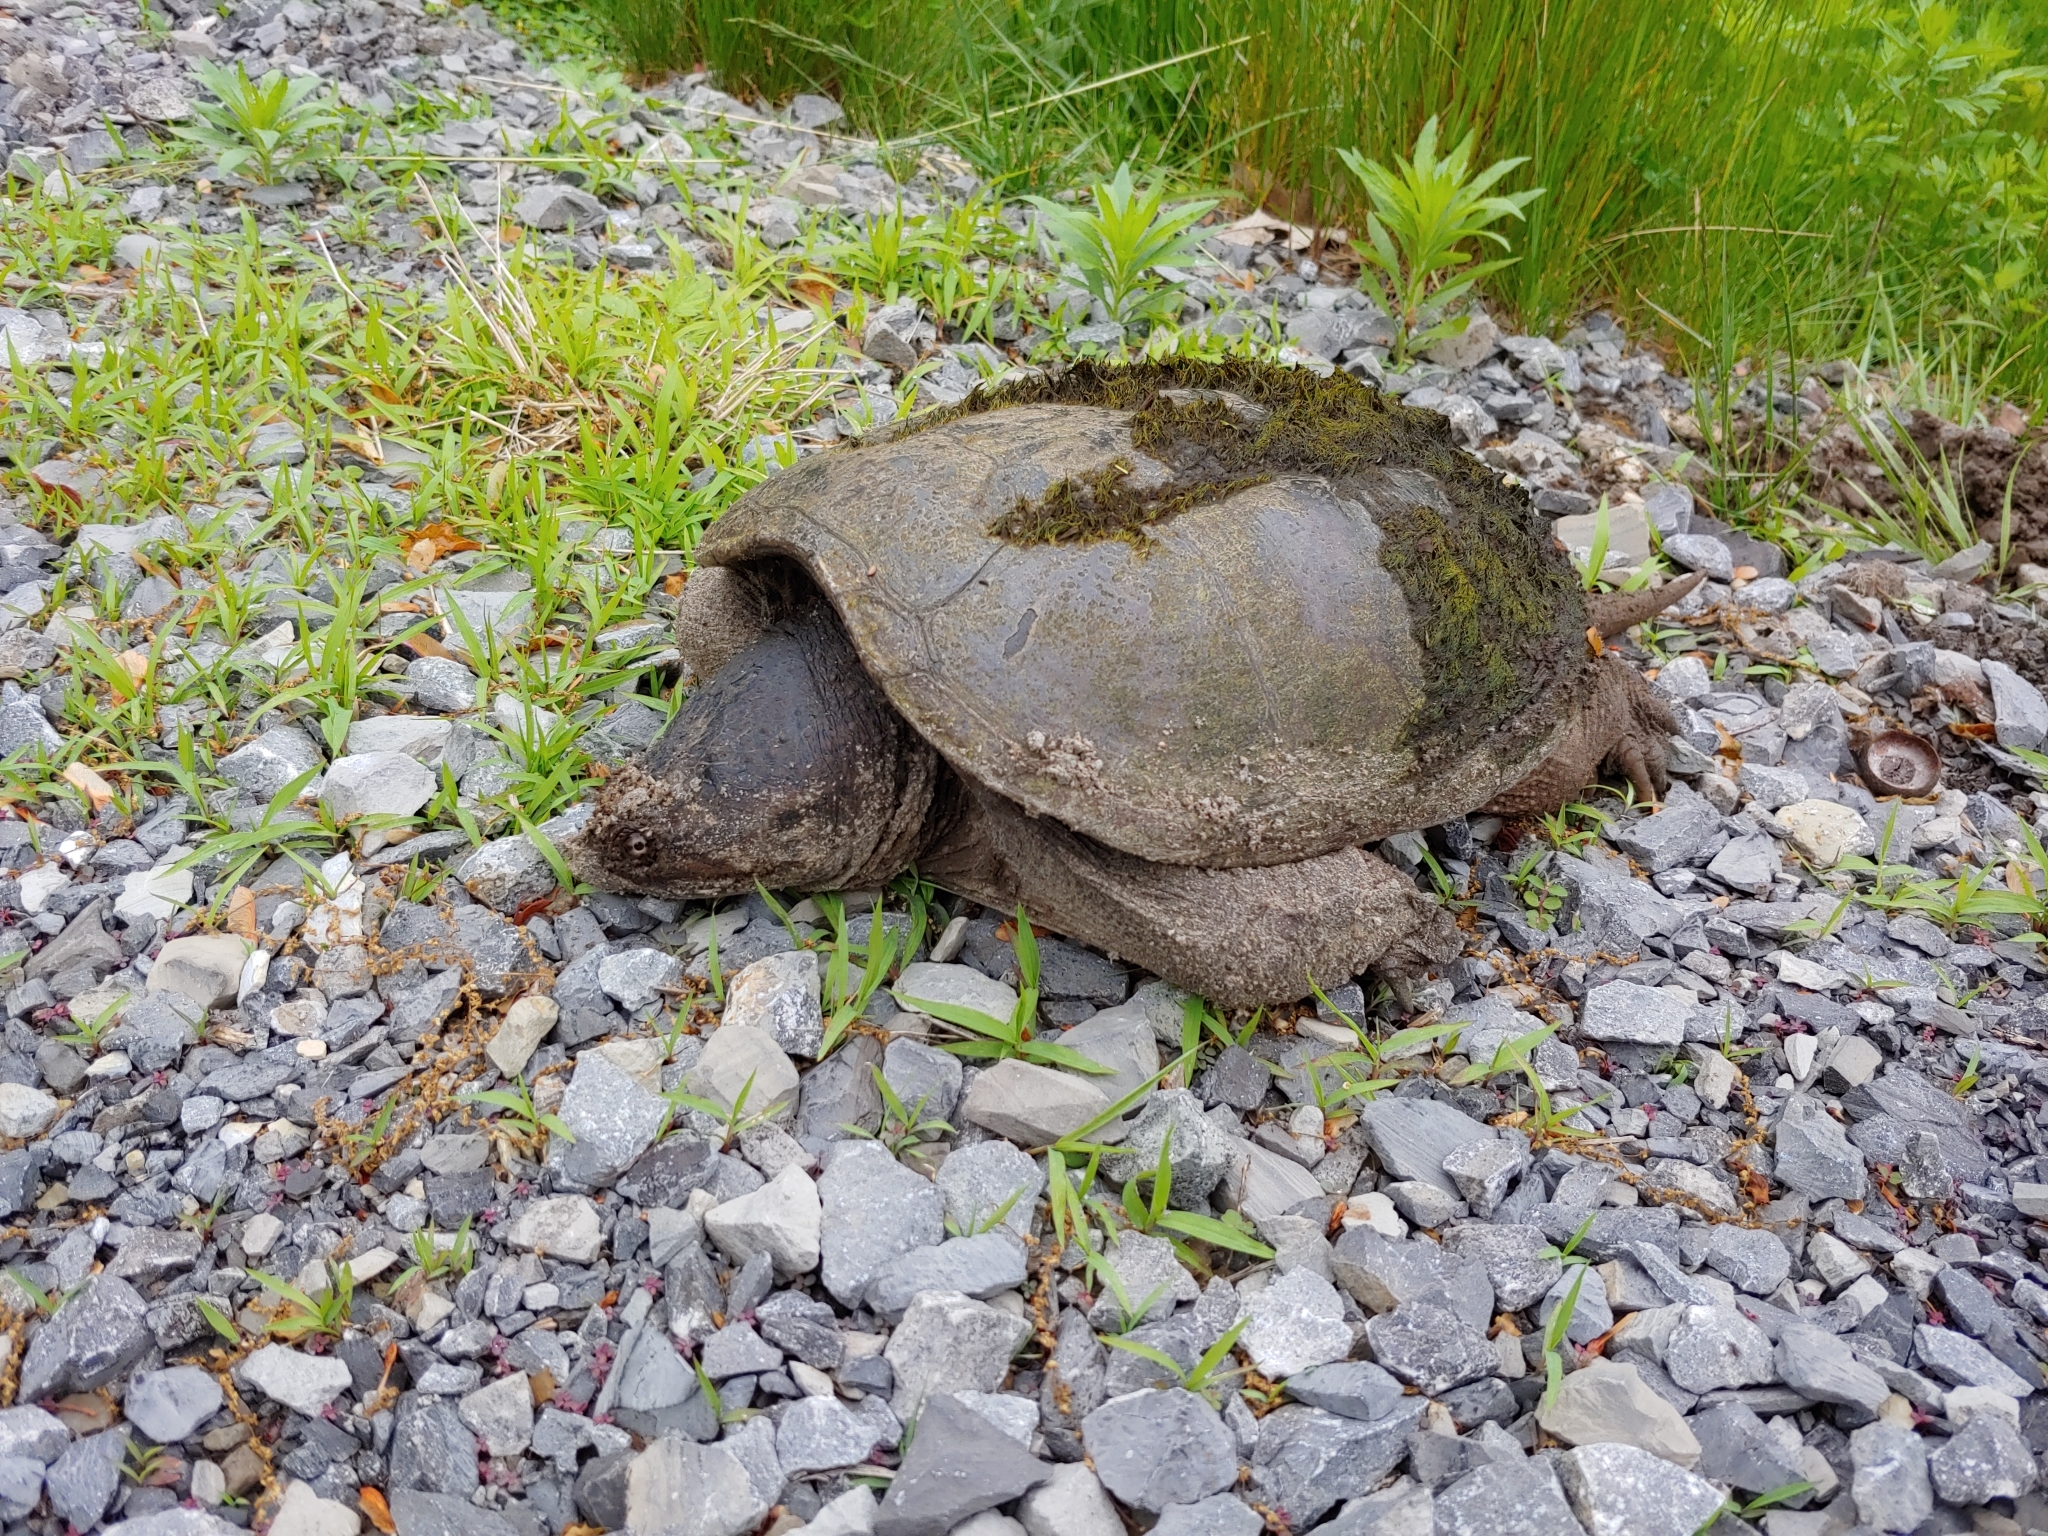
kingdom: Animalia
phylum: Chordata
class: Testudines
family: Chelydridae
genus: Chelydra
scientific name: Chelydra serpentina
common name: Common snapping turtle
